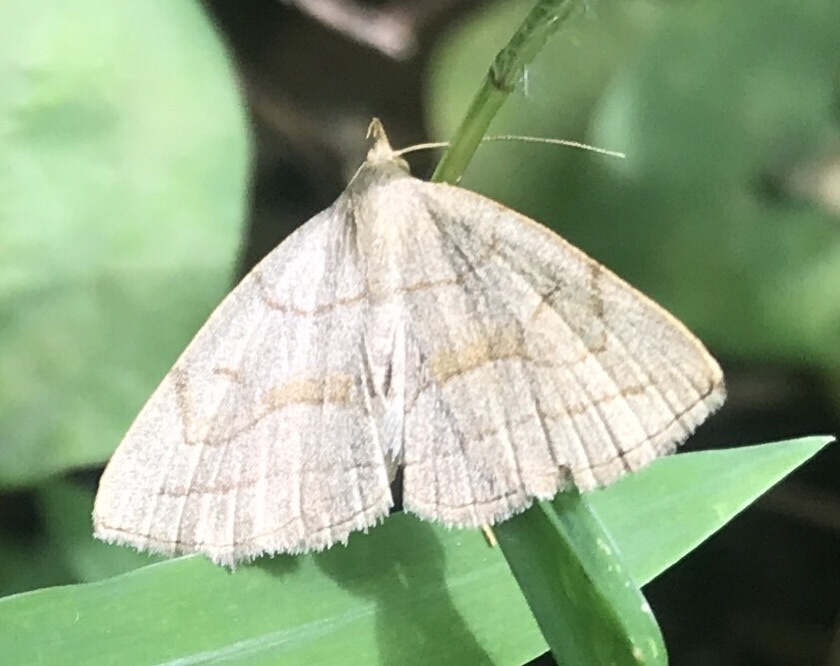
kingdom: Animalia
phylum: Arthropoda
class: Insecta
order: Lepidoptera
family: Erebidae
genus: Zanclognatha
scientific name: Zanclognatha pedipilalis
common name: Grayish fan-foot
